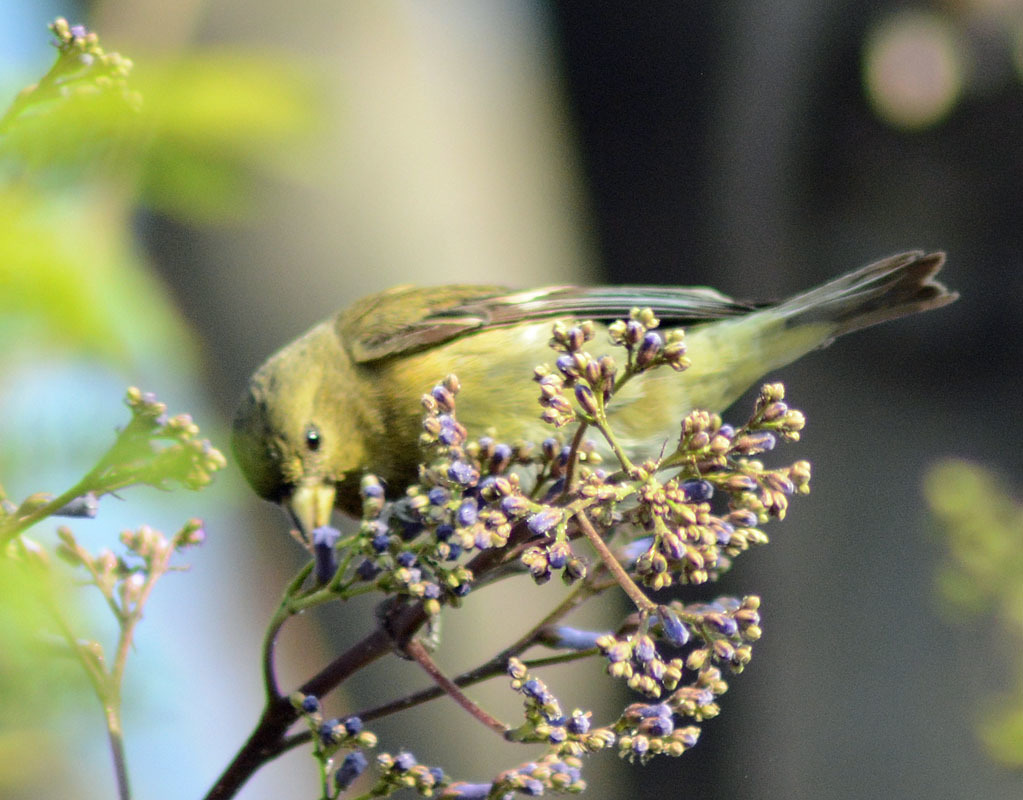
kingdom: Animalia
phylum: Chordata
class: Aves
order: Passeriformes
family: Fringillidae
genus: Spinus
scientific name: Spinus psaltria
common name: Lesser goldfinch
